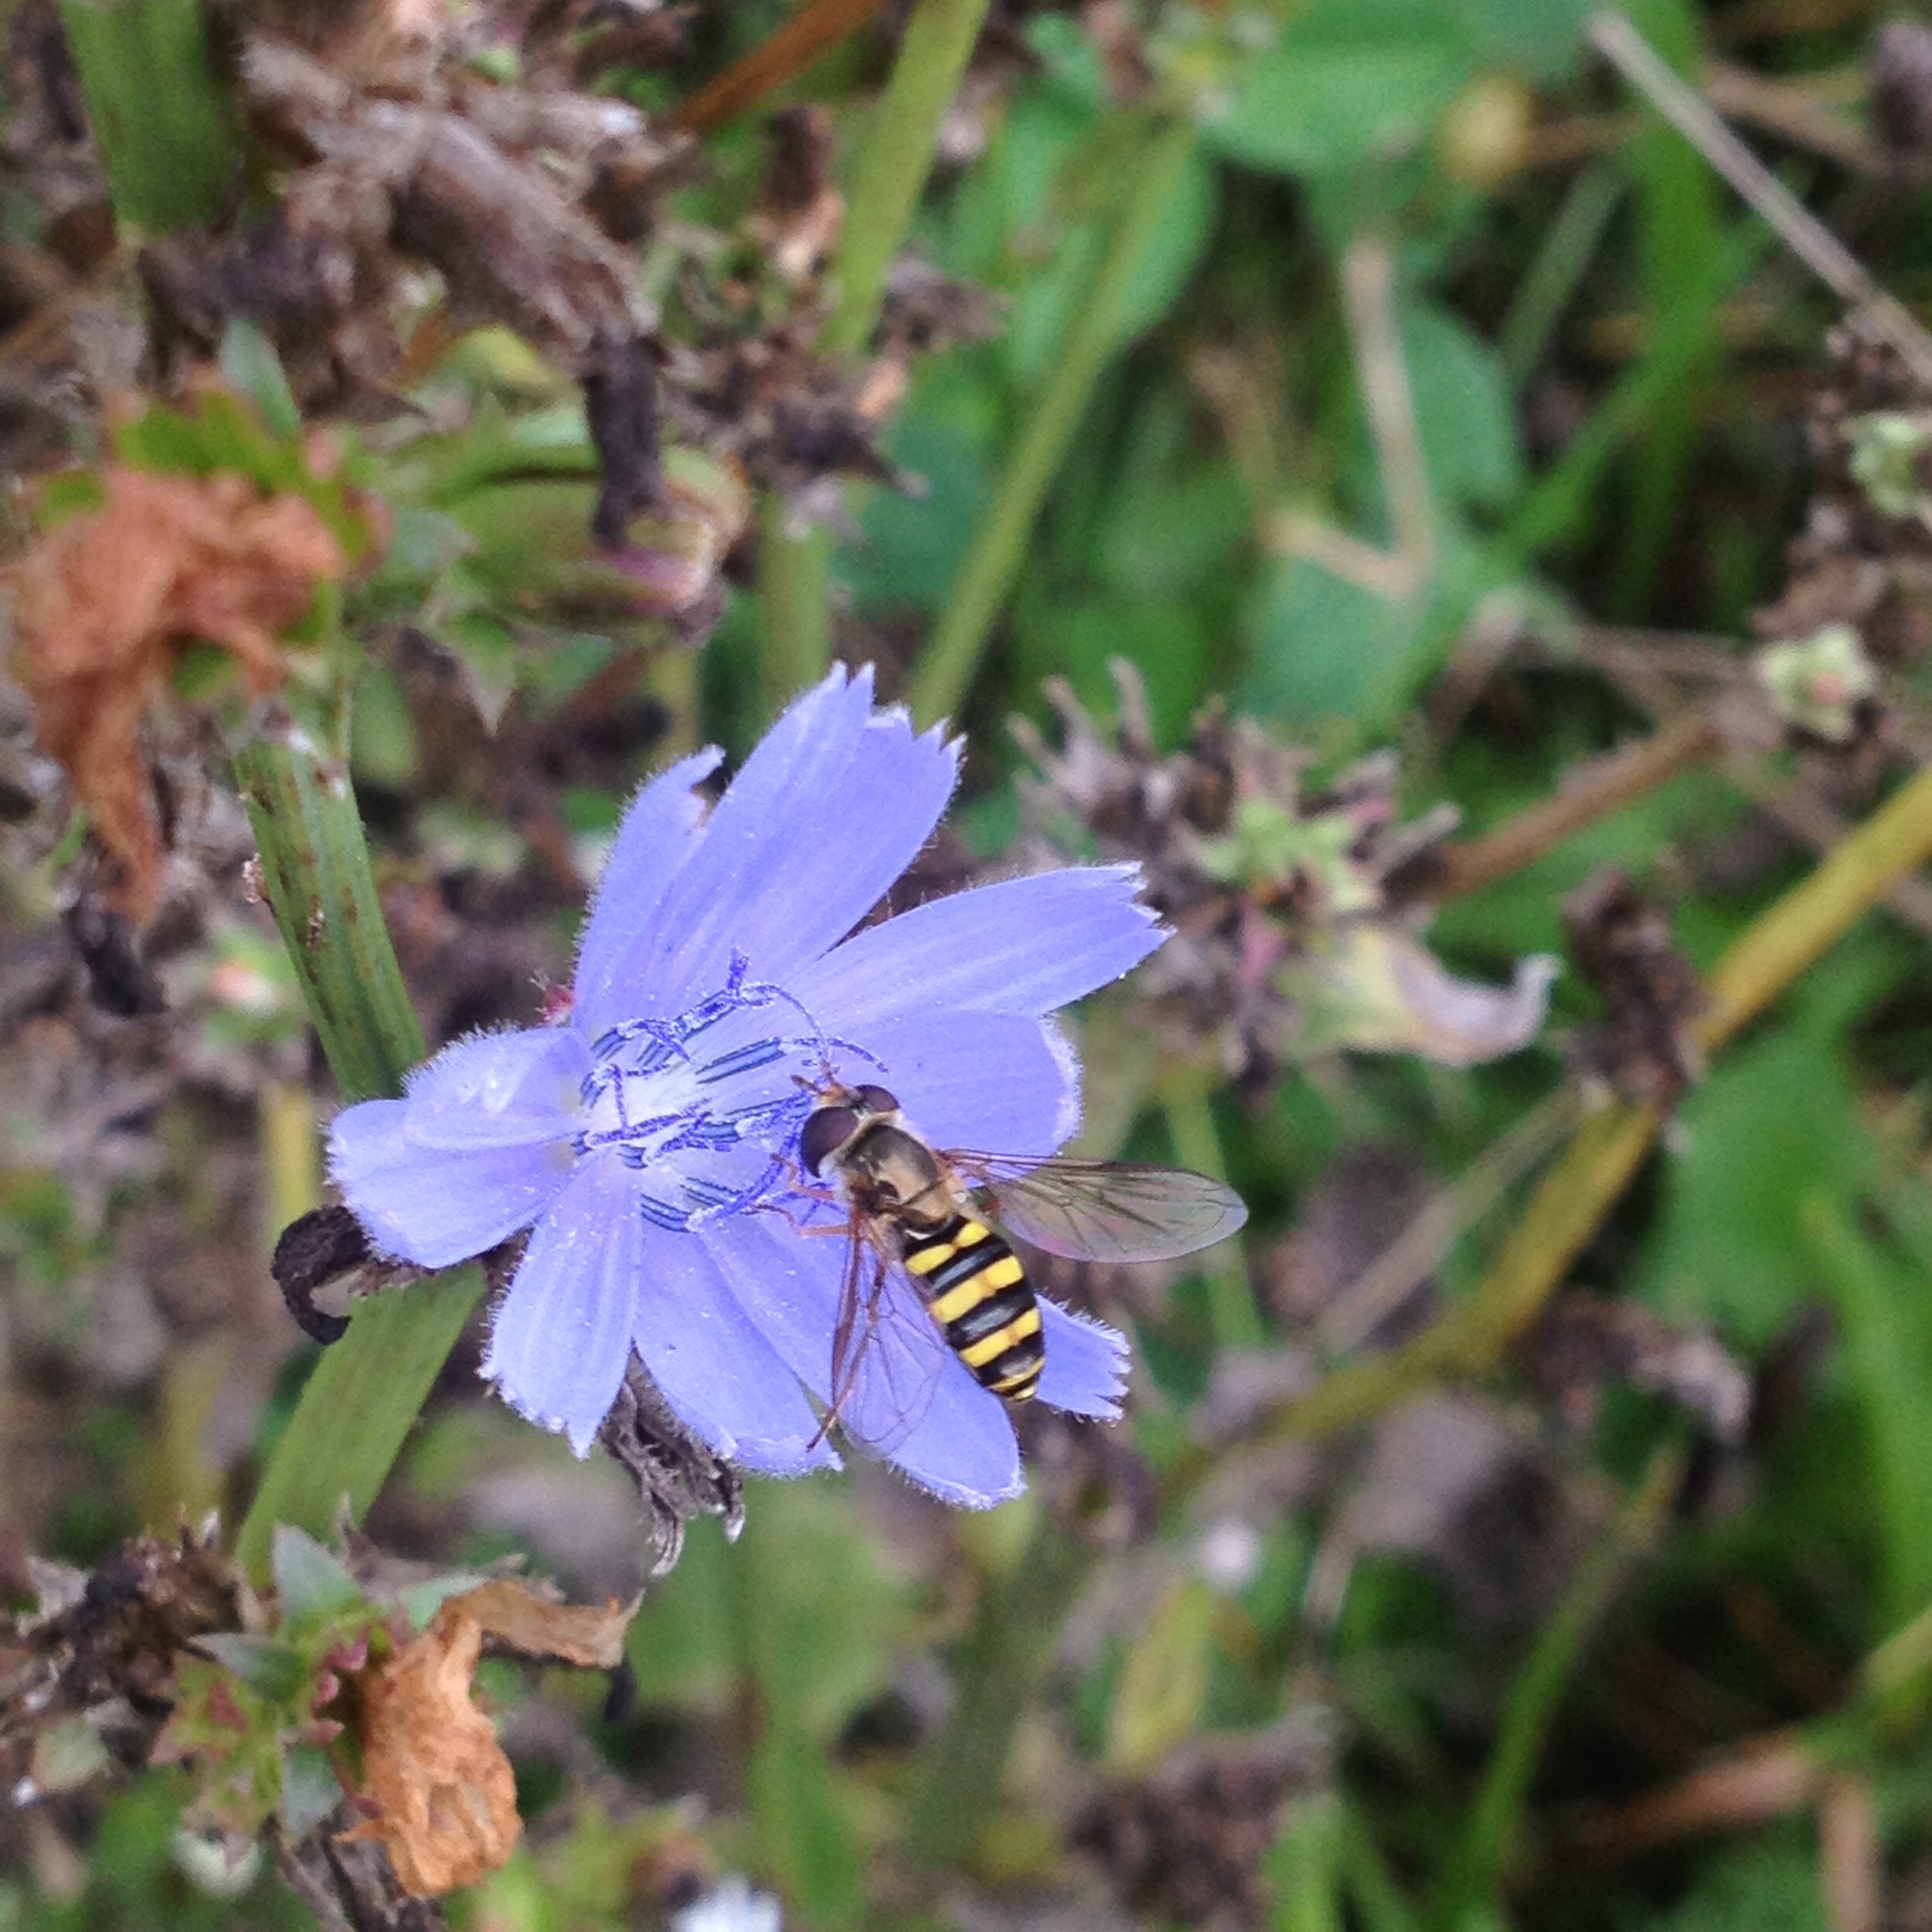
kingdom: Animalia
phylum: Arthropoda
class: Insecta
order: Diptera
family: Syrphidae
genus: Eupeodes
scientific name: Eupeodes
